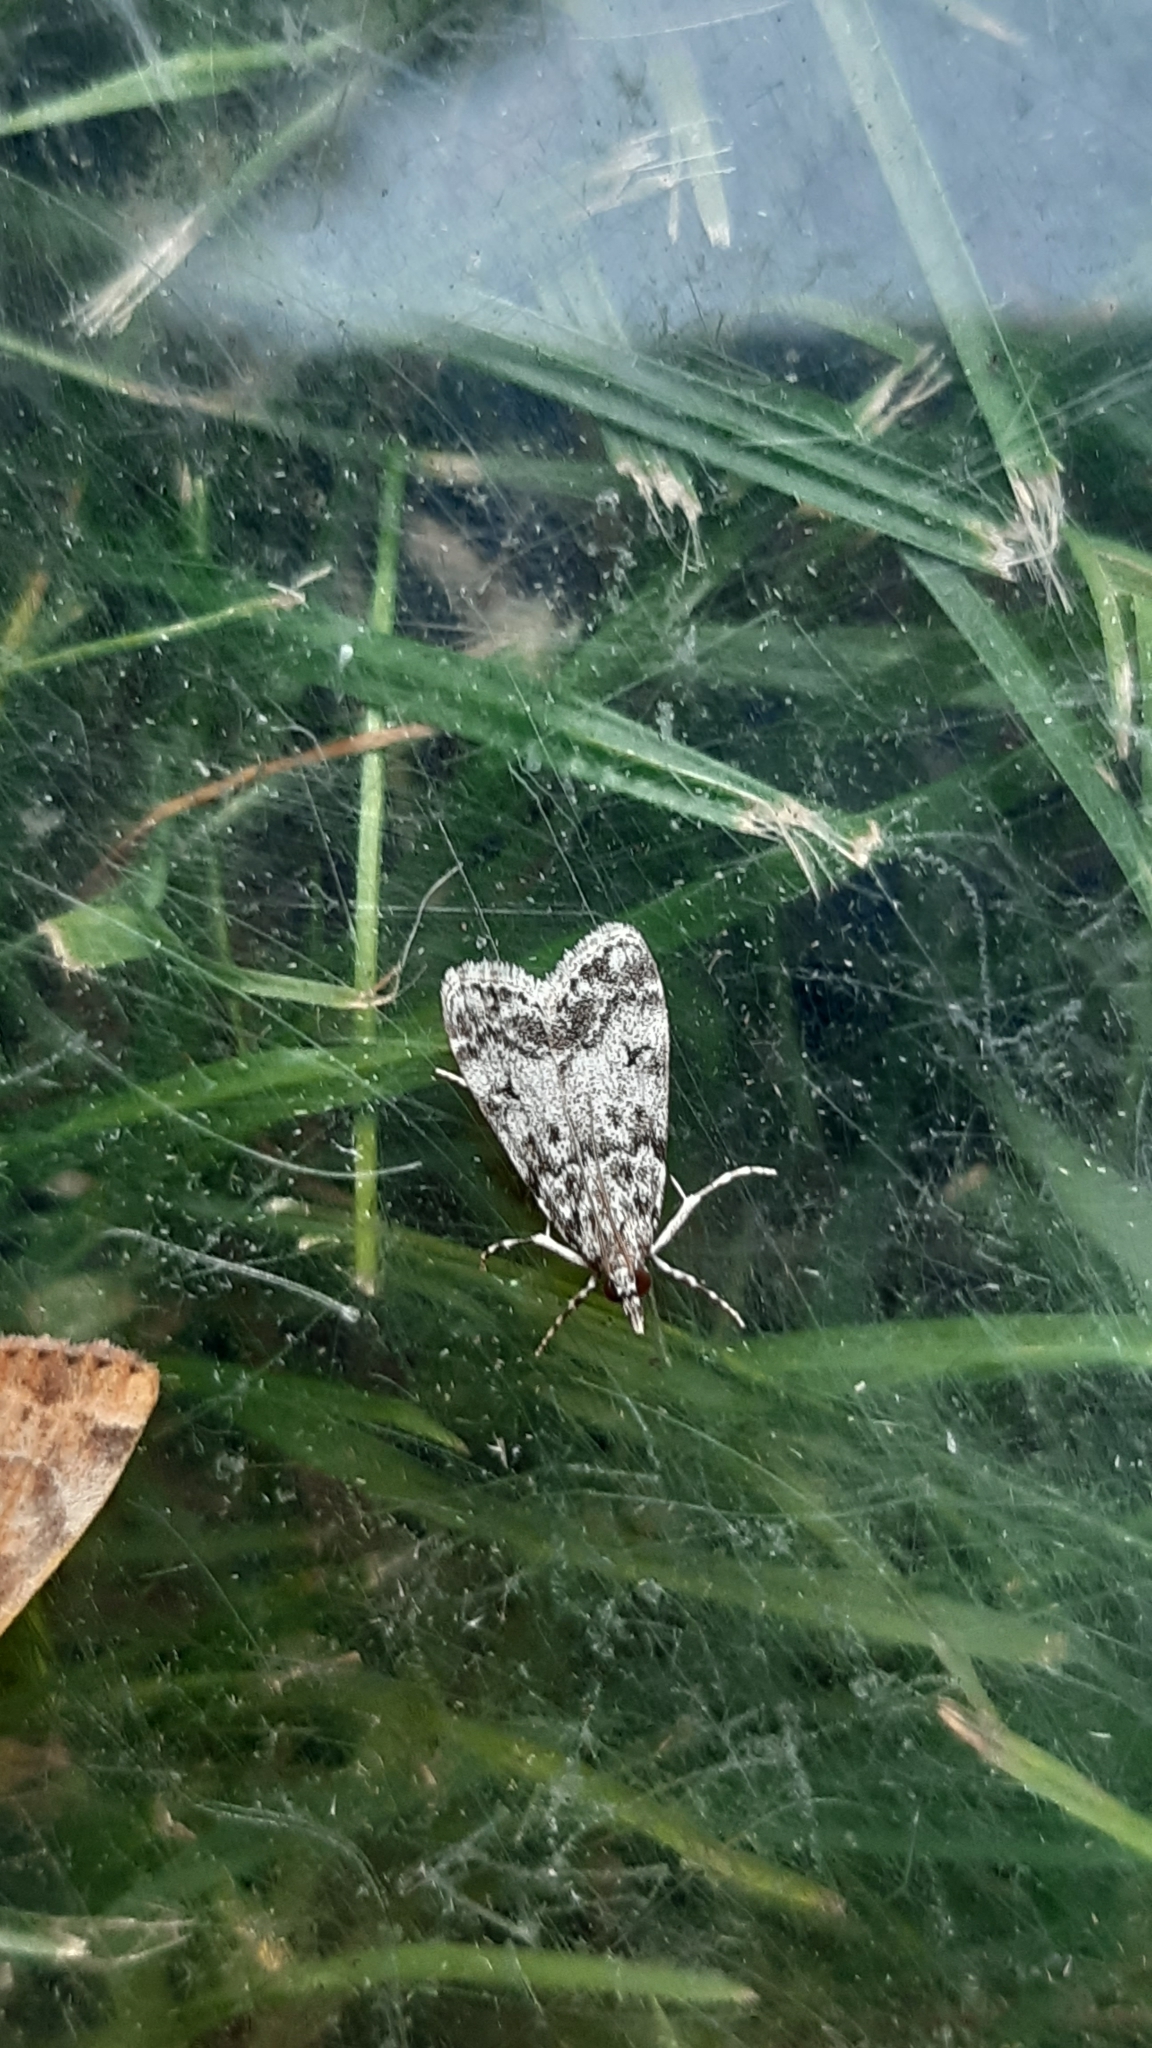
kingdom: Animalia
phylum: Arthropoda
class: Insecta
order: Lepidoptera
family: Crambidae
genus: Eudonia
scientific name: Eudonia lacustrata
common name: Little grey
